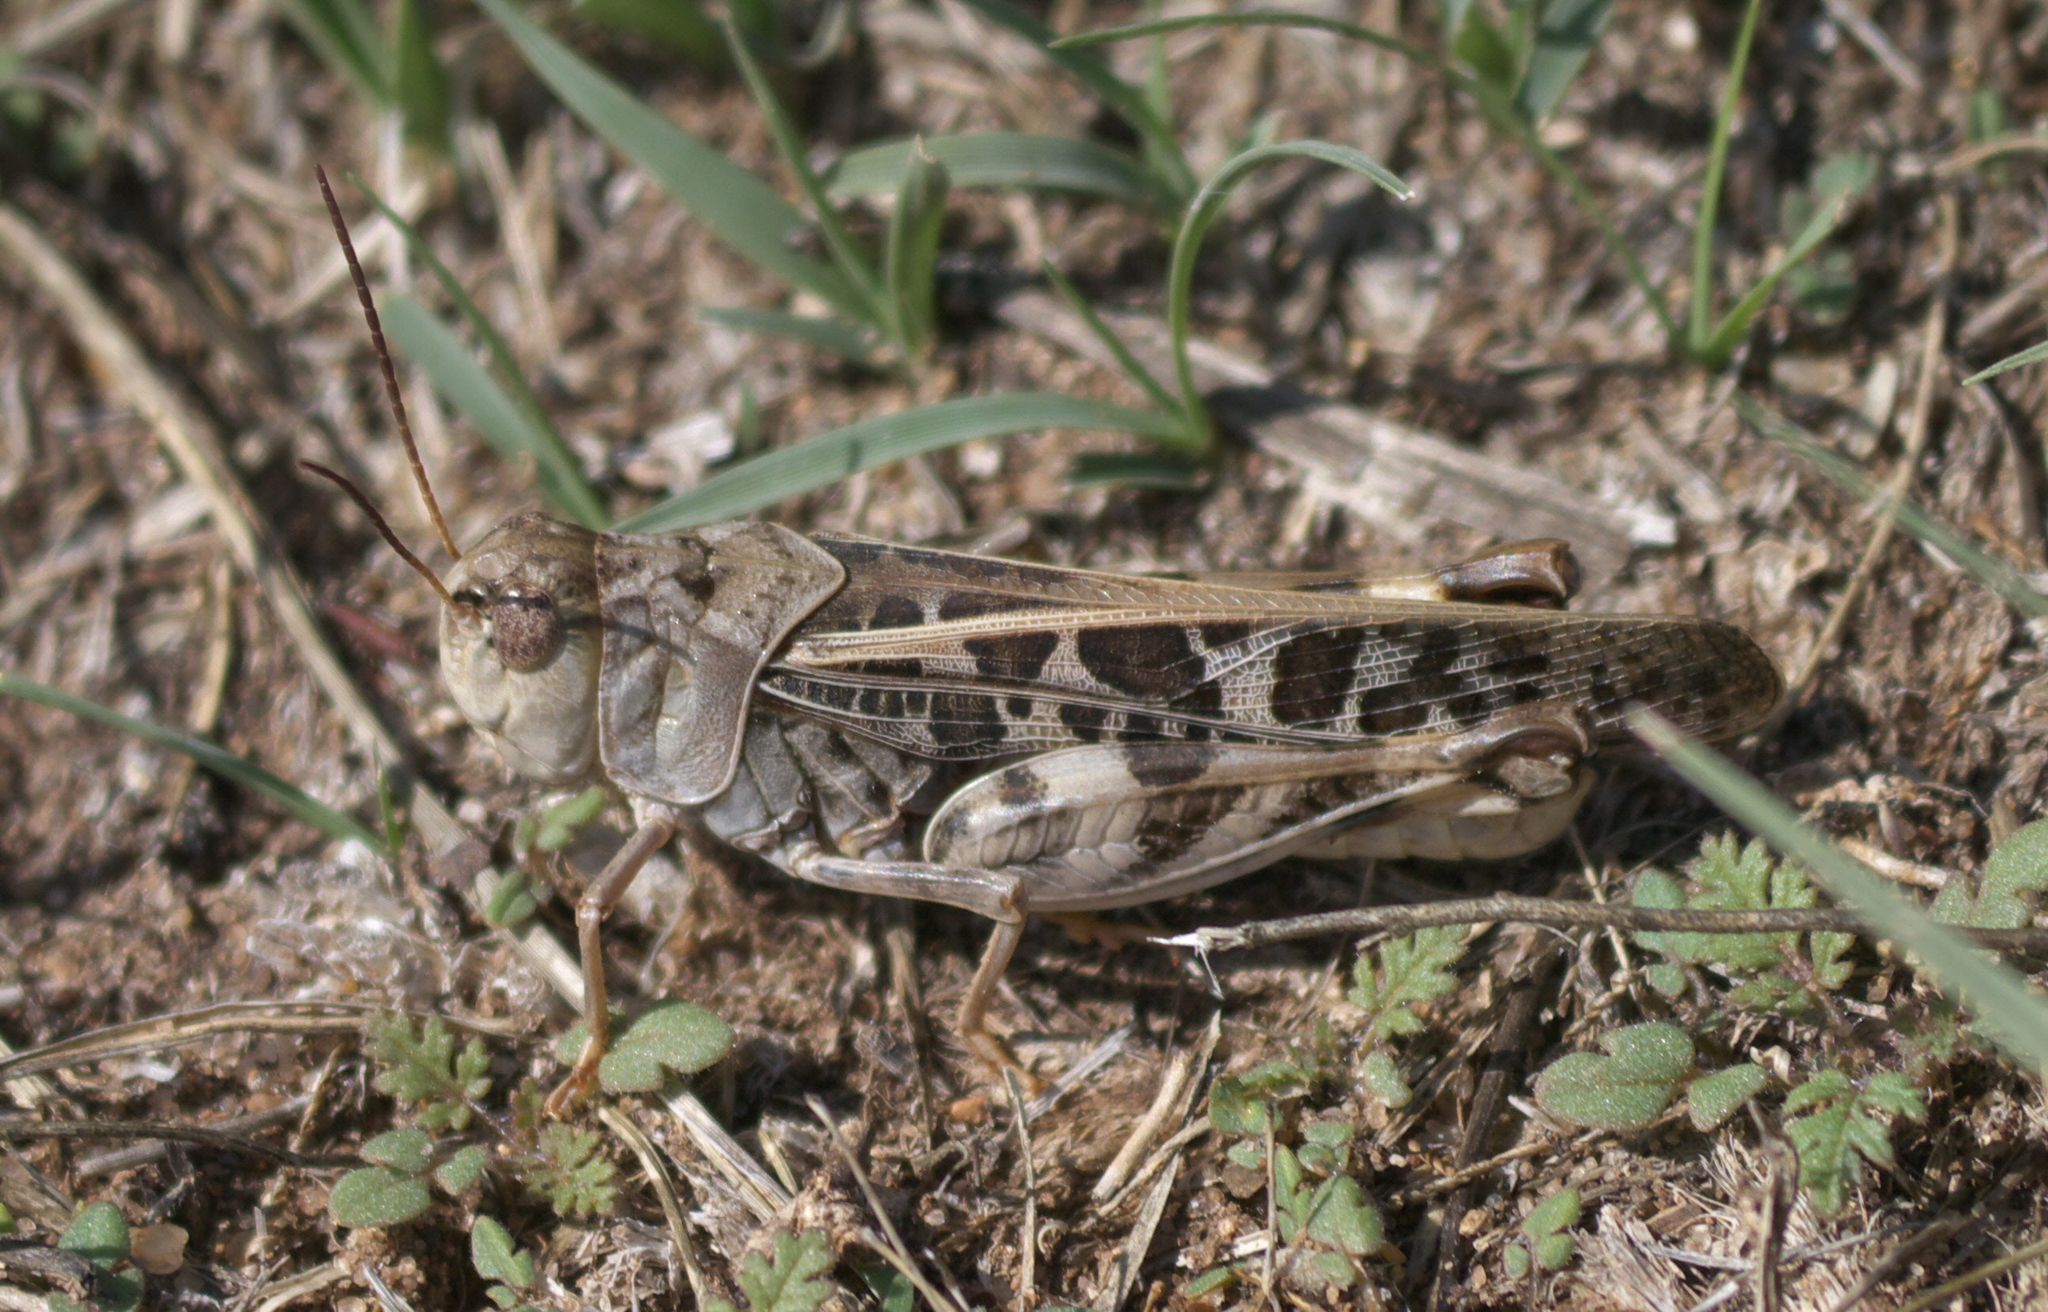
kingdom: Animalia
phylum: Arthropoda
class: Insecta
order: Orthoptera
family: Acrididae
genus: Hippiscus
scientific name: Hippiscus ocelote
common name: Wrinkled grasshopper
